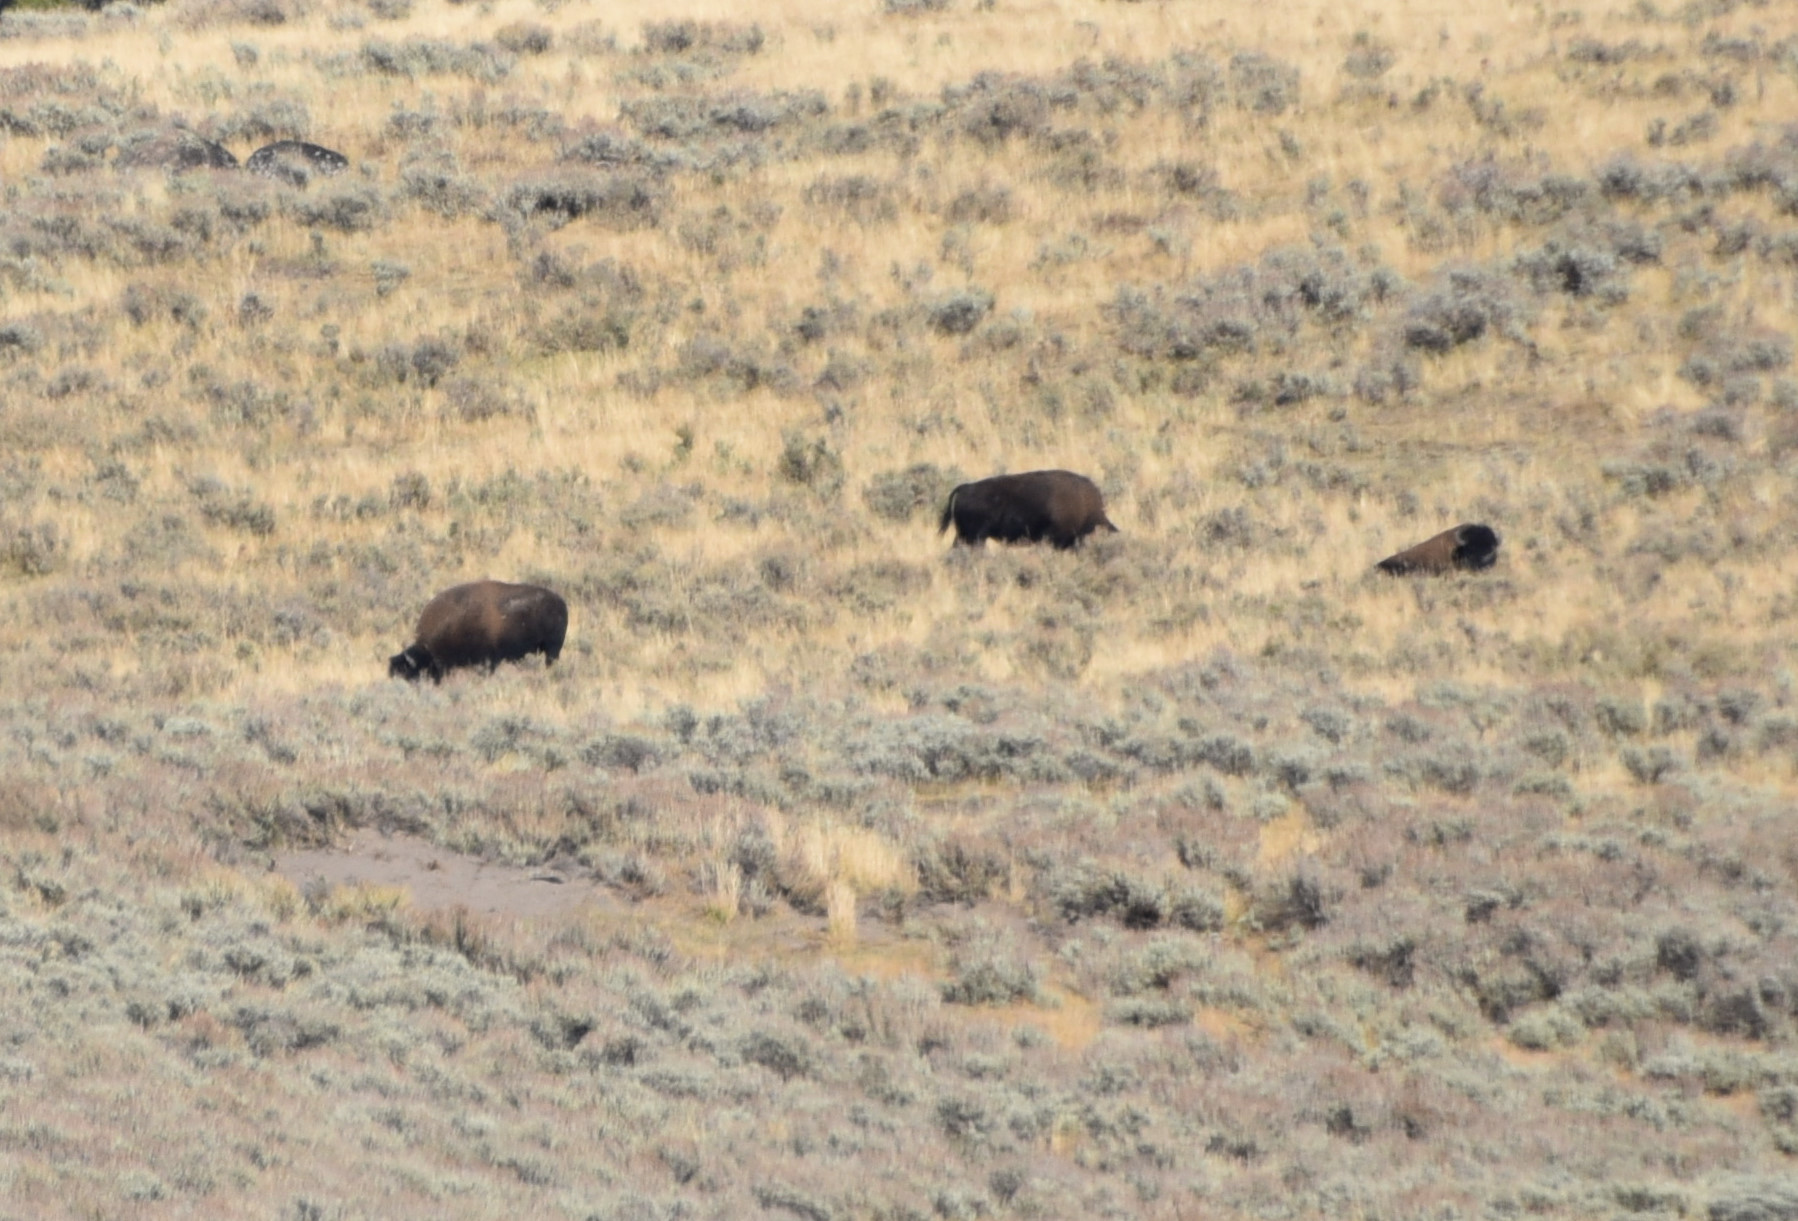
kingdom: Animalia
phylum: Chordata
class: Mammalia
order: Artiodactyla
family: Bovidae
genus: Bison
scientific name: Bison bison
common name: American bison
